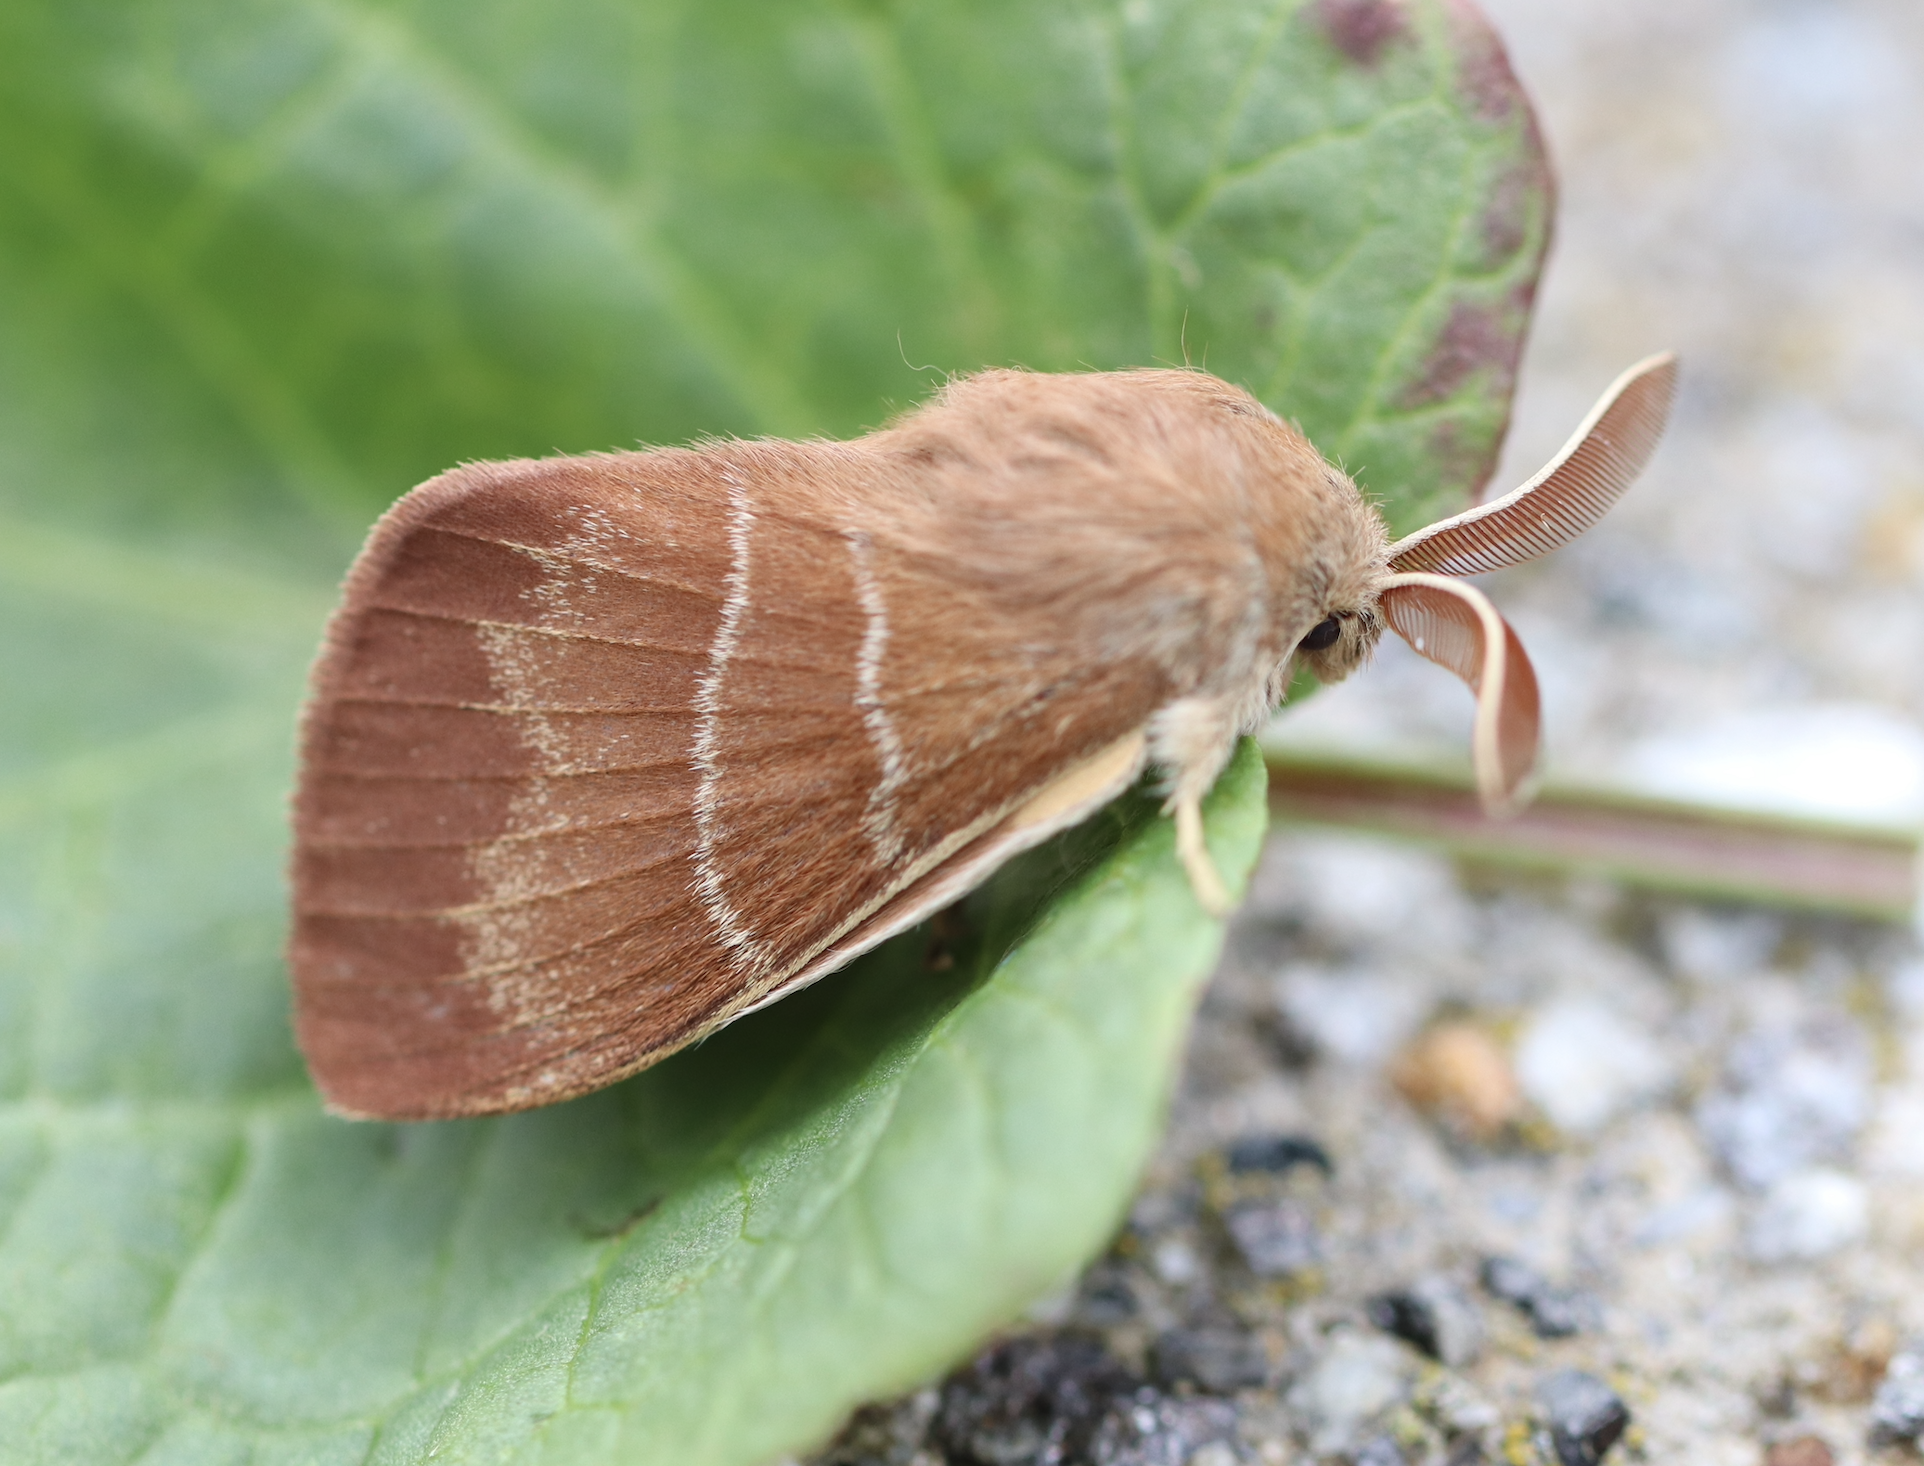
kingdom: Animalia
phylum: Arthropoda
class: Insecta
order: Lepidoptera
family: Lasiocampidae
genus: Macrothylacia
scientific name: Macrothylacia rubi
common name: Fox moth
